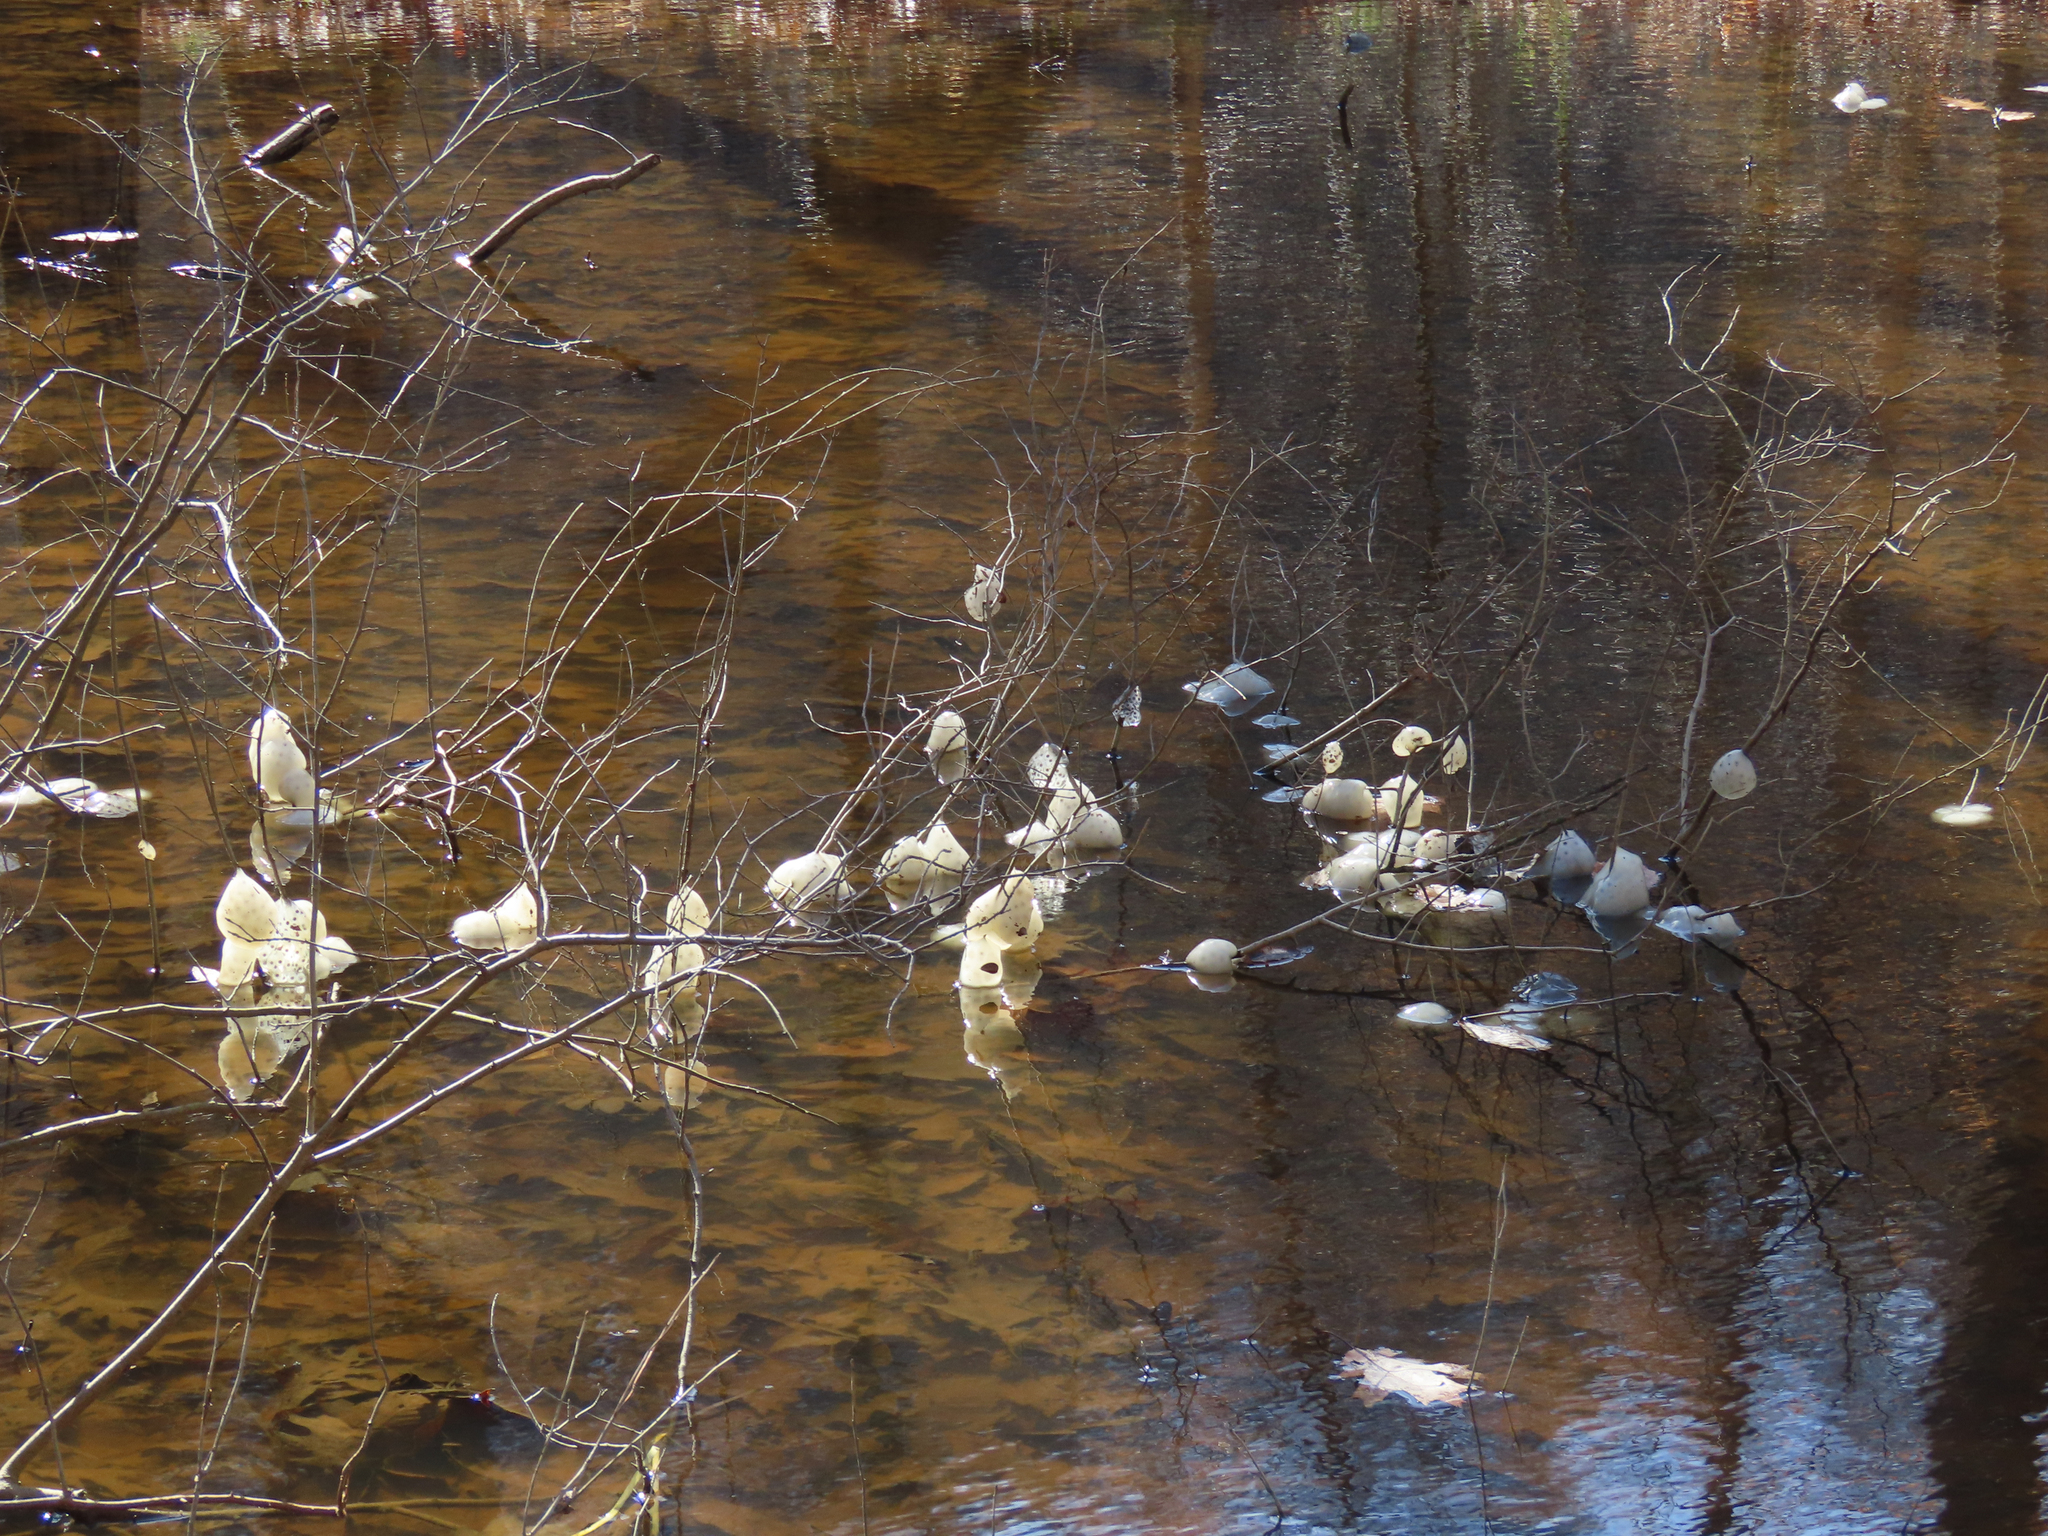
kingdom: Animalia
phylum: Chordata
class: Amphibia
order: Caudata
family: Ambystomatidae
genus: Ambystoma
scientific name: Ambystoma maculatum
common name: Spotted salamander
